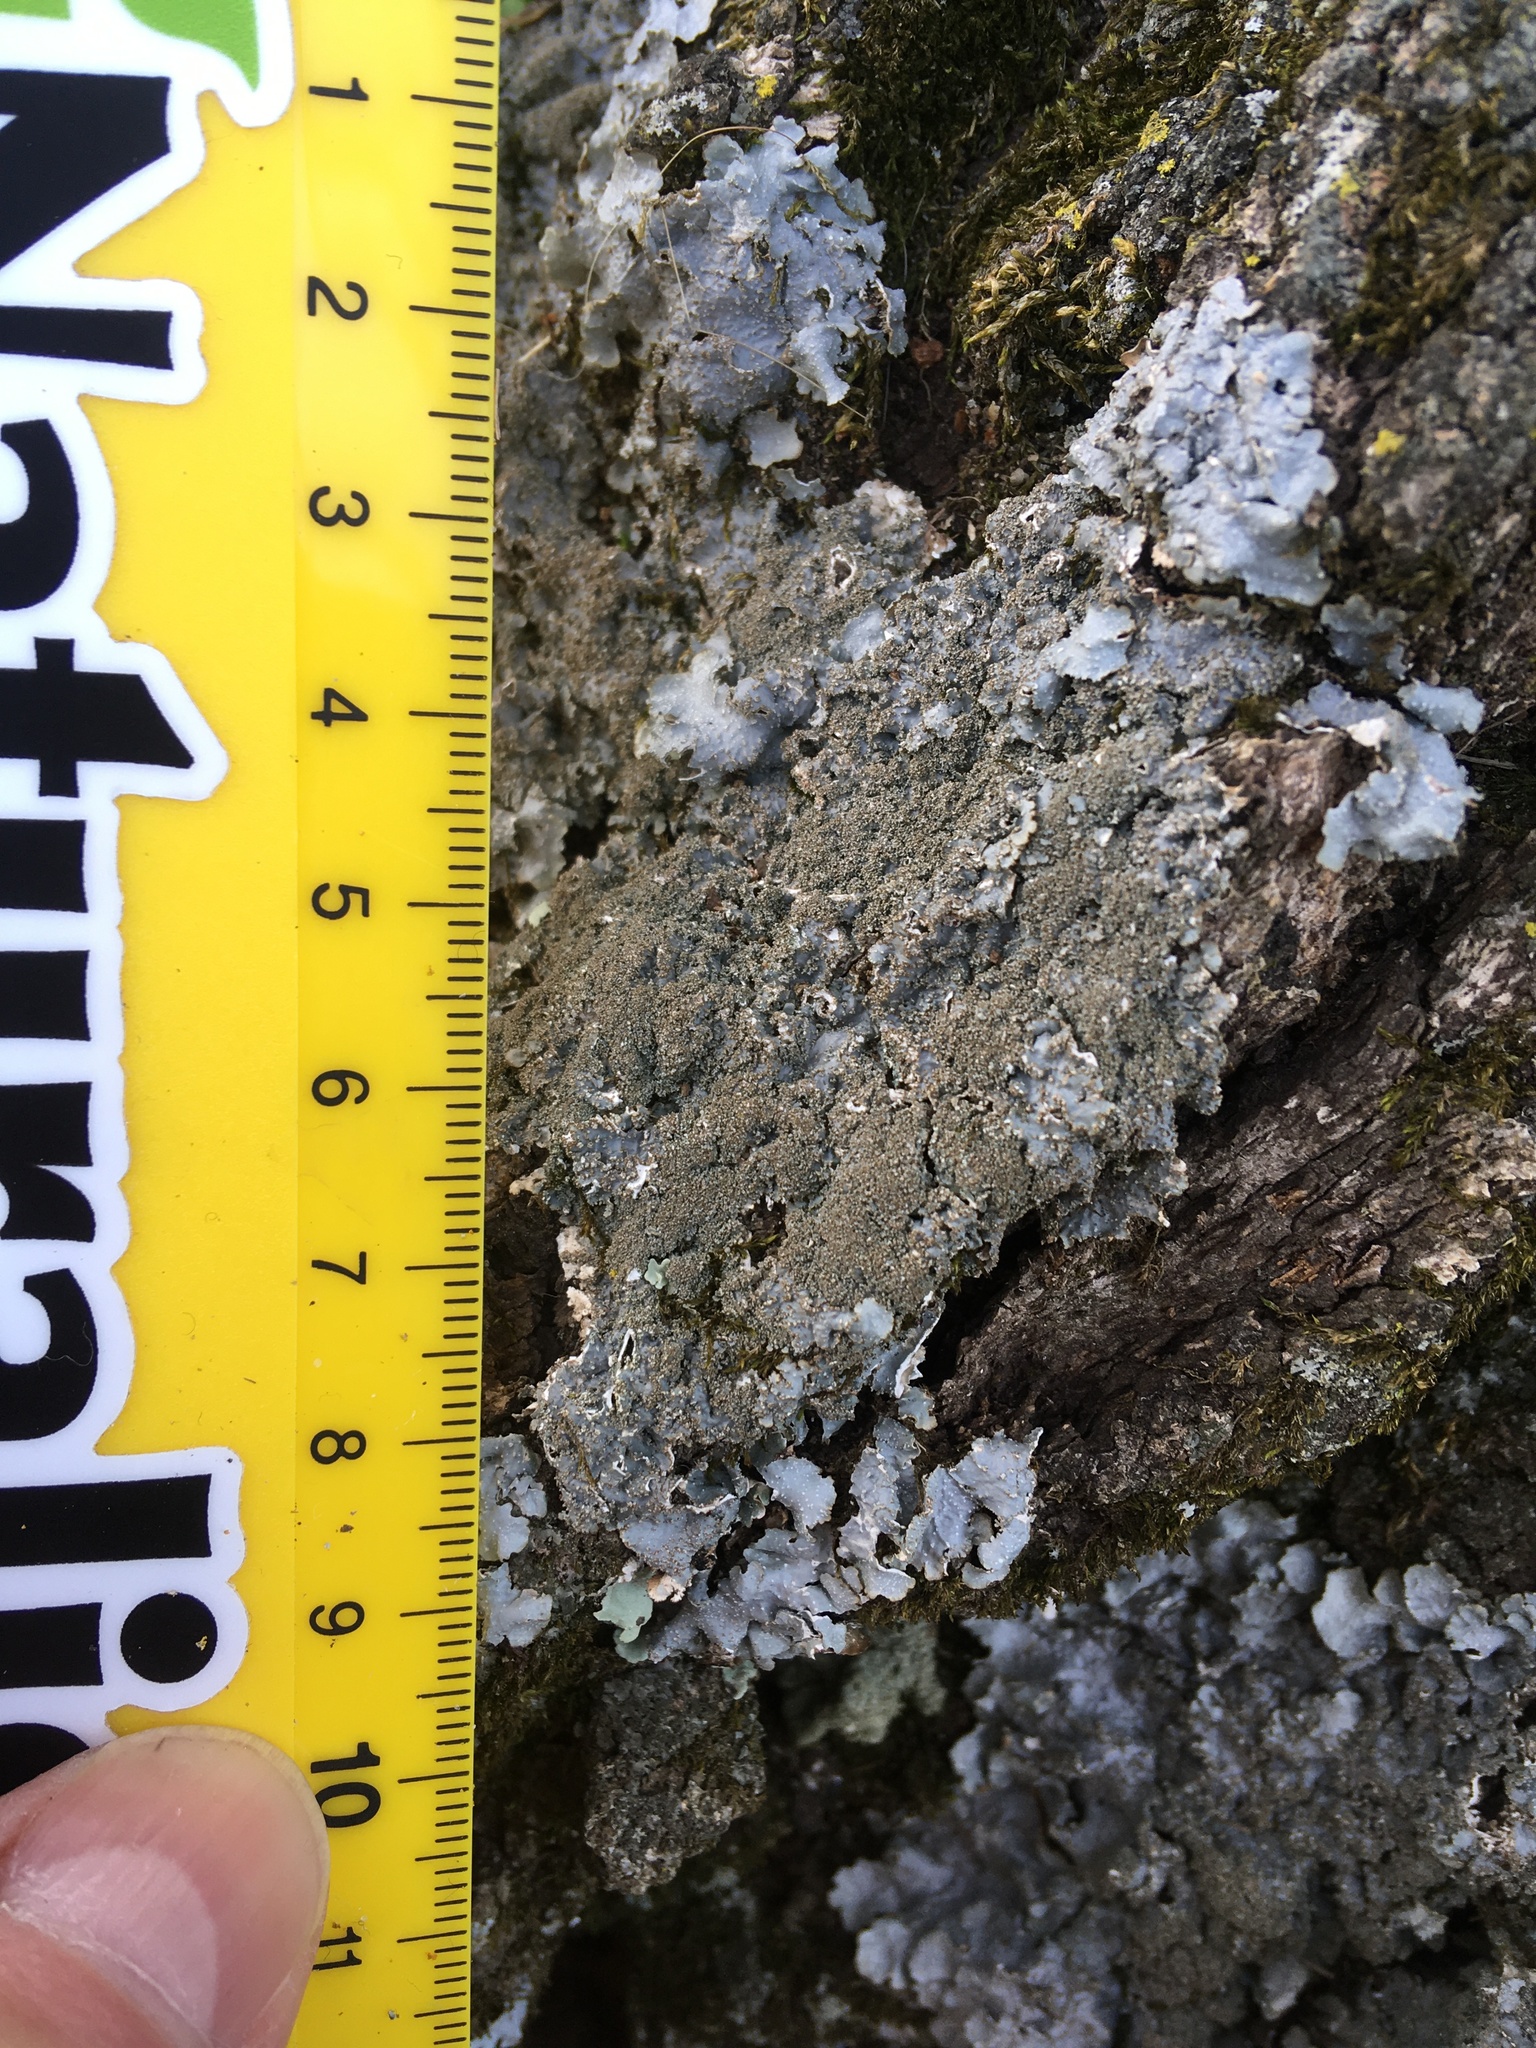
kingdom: Fungi
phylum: Ascomycota
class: Lecanoromycetes
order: Lecanorales
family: Parmeliaceae
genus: Punctelia
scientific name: Punctelia rudecta
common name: Rough speckled shield lichen
